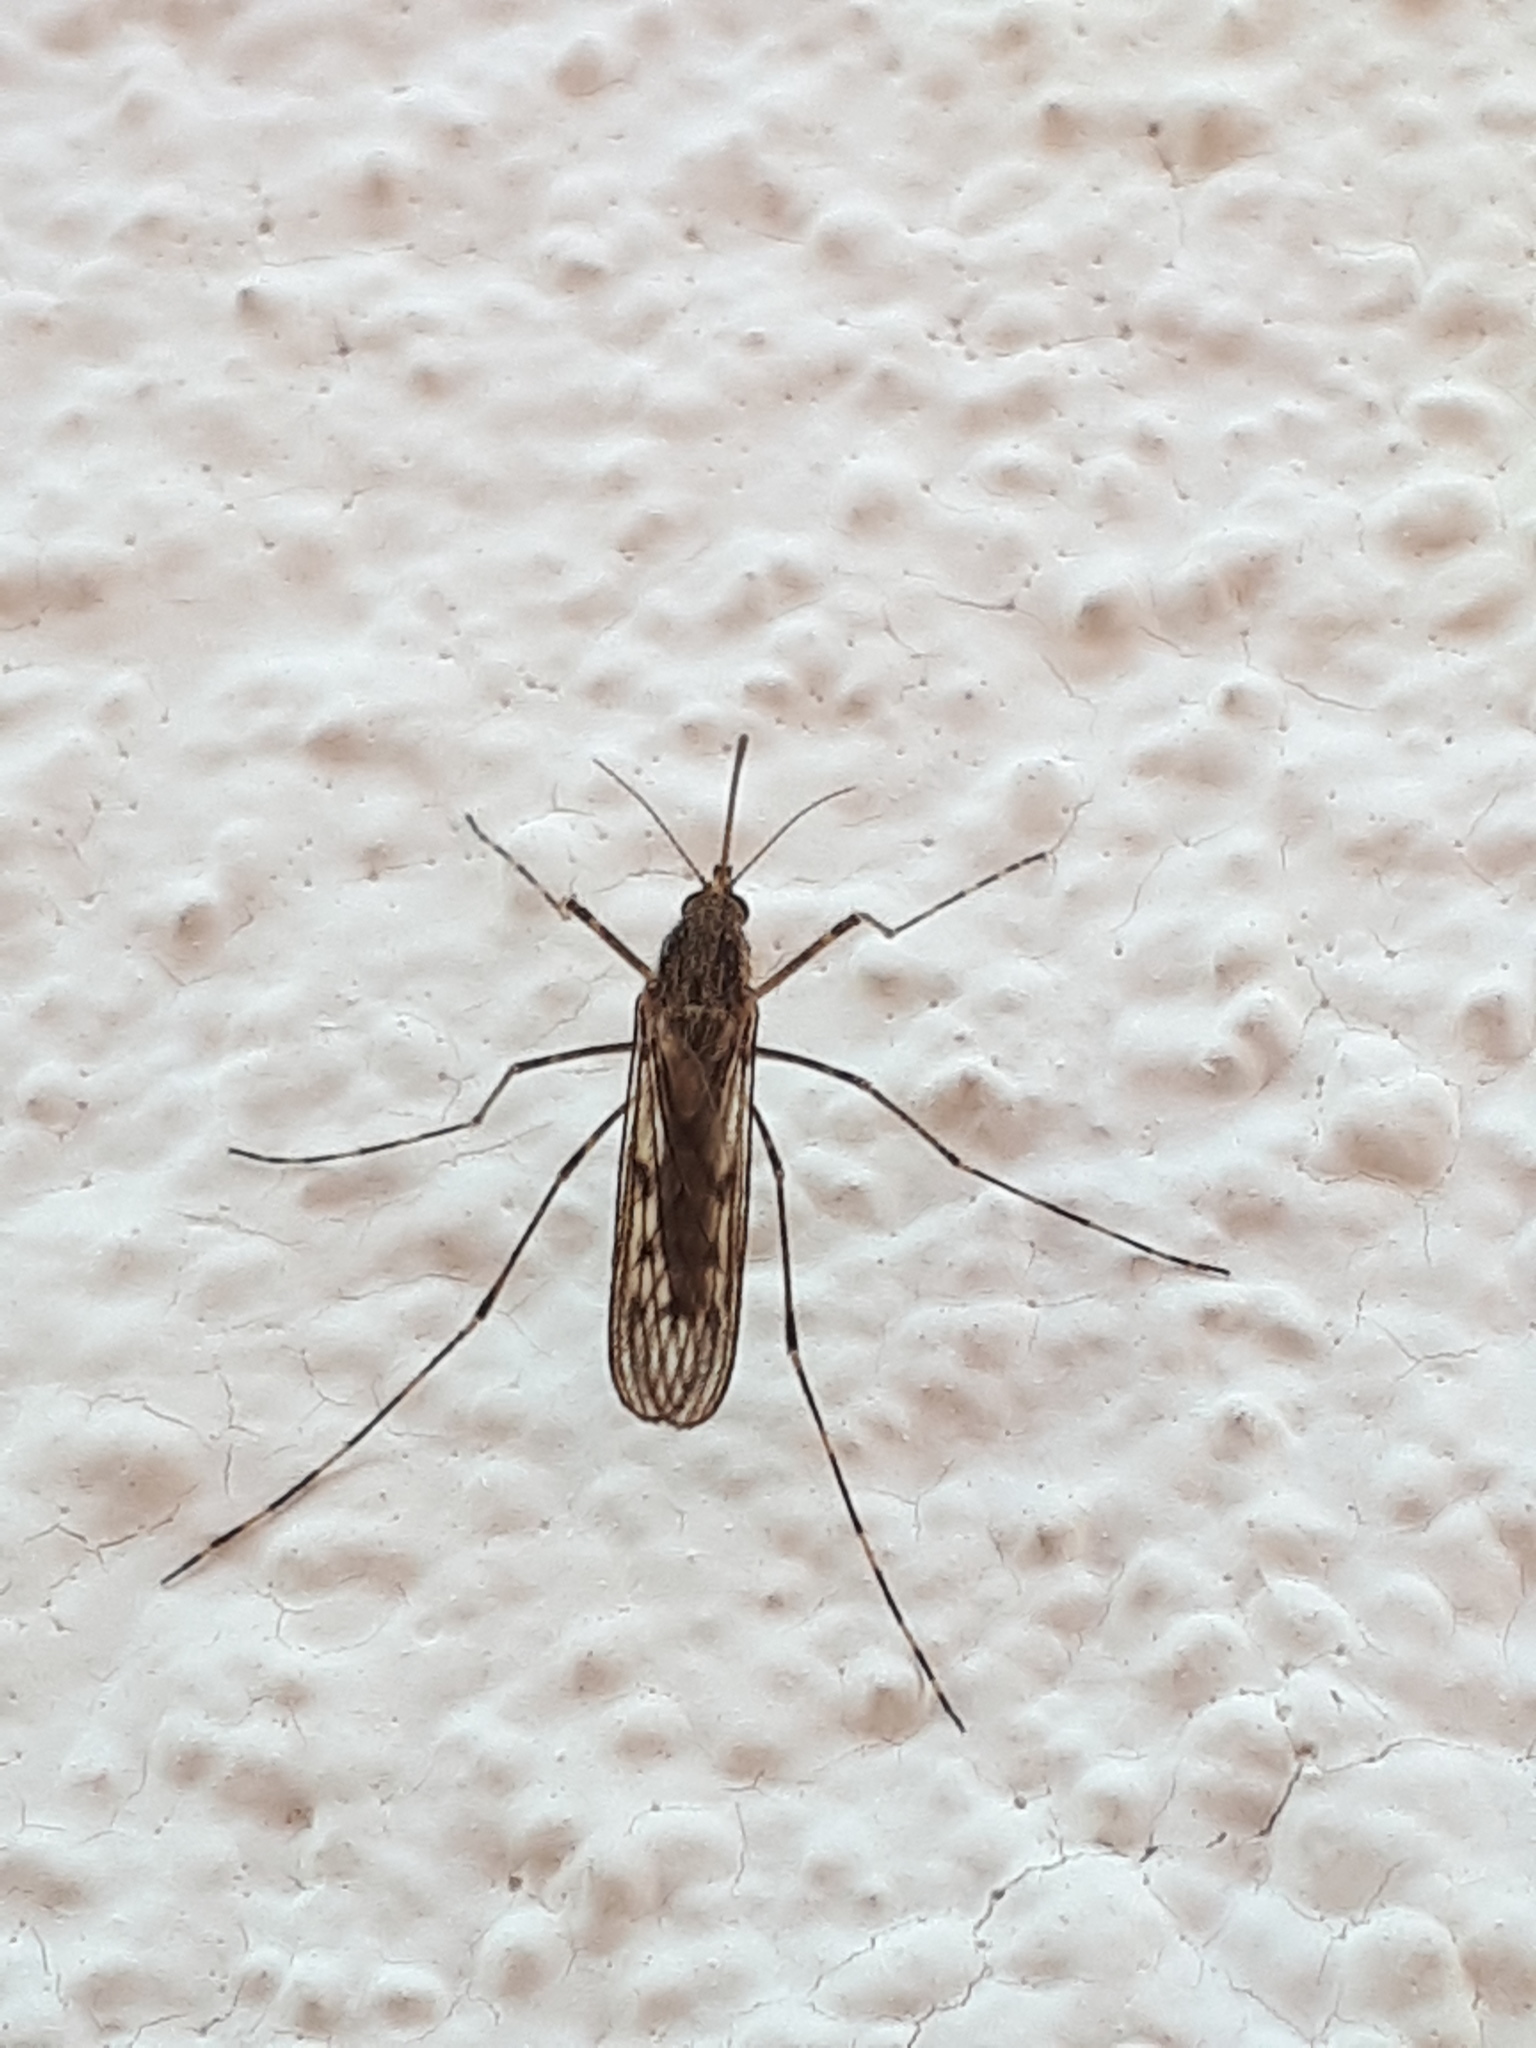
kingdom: Animalia
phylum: Arthropoda
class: Insecta
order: Diptera
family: Culicidae
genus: Culiseta
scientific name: Culiseta annulata
